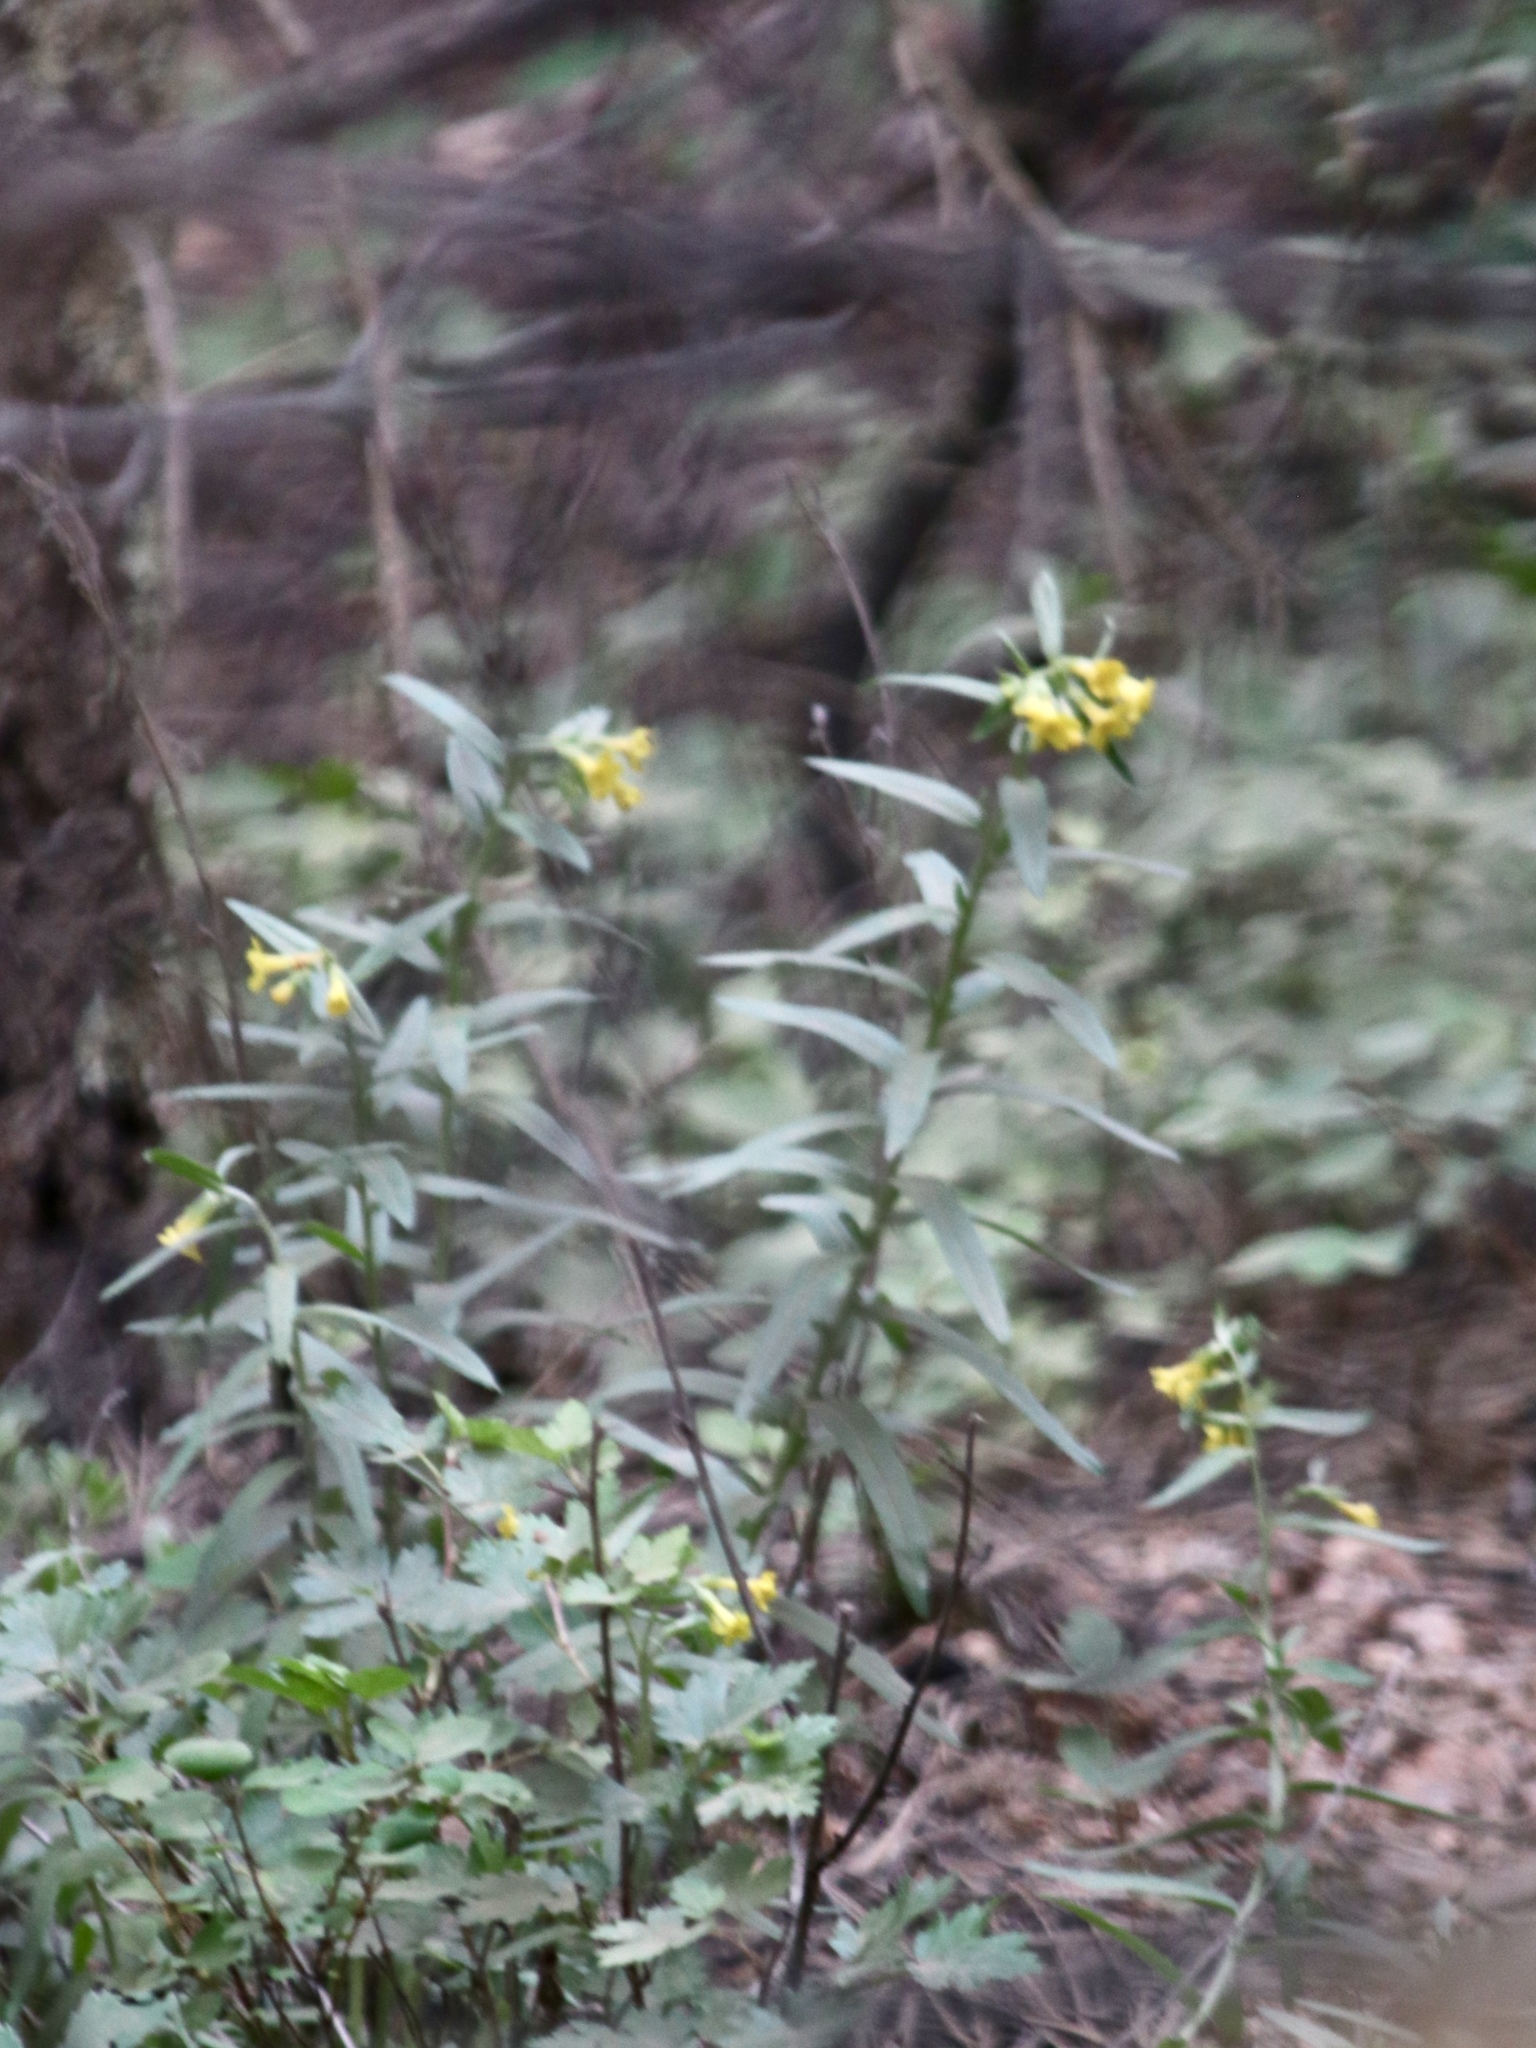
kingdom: Plantae
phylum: Tracheophyta
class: Magnoliopsida
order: Boraginales
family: Boraginaceae
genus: Lithospermum
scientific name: Lithospermum multiflorum
